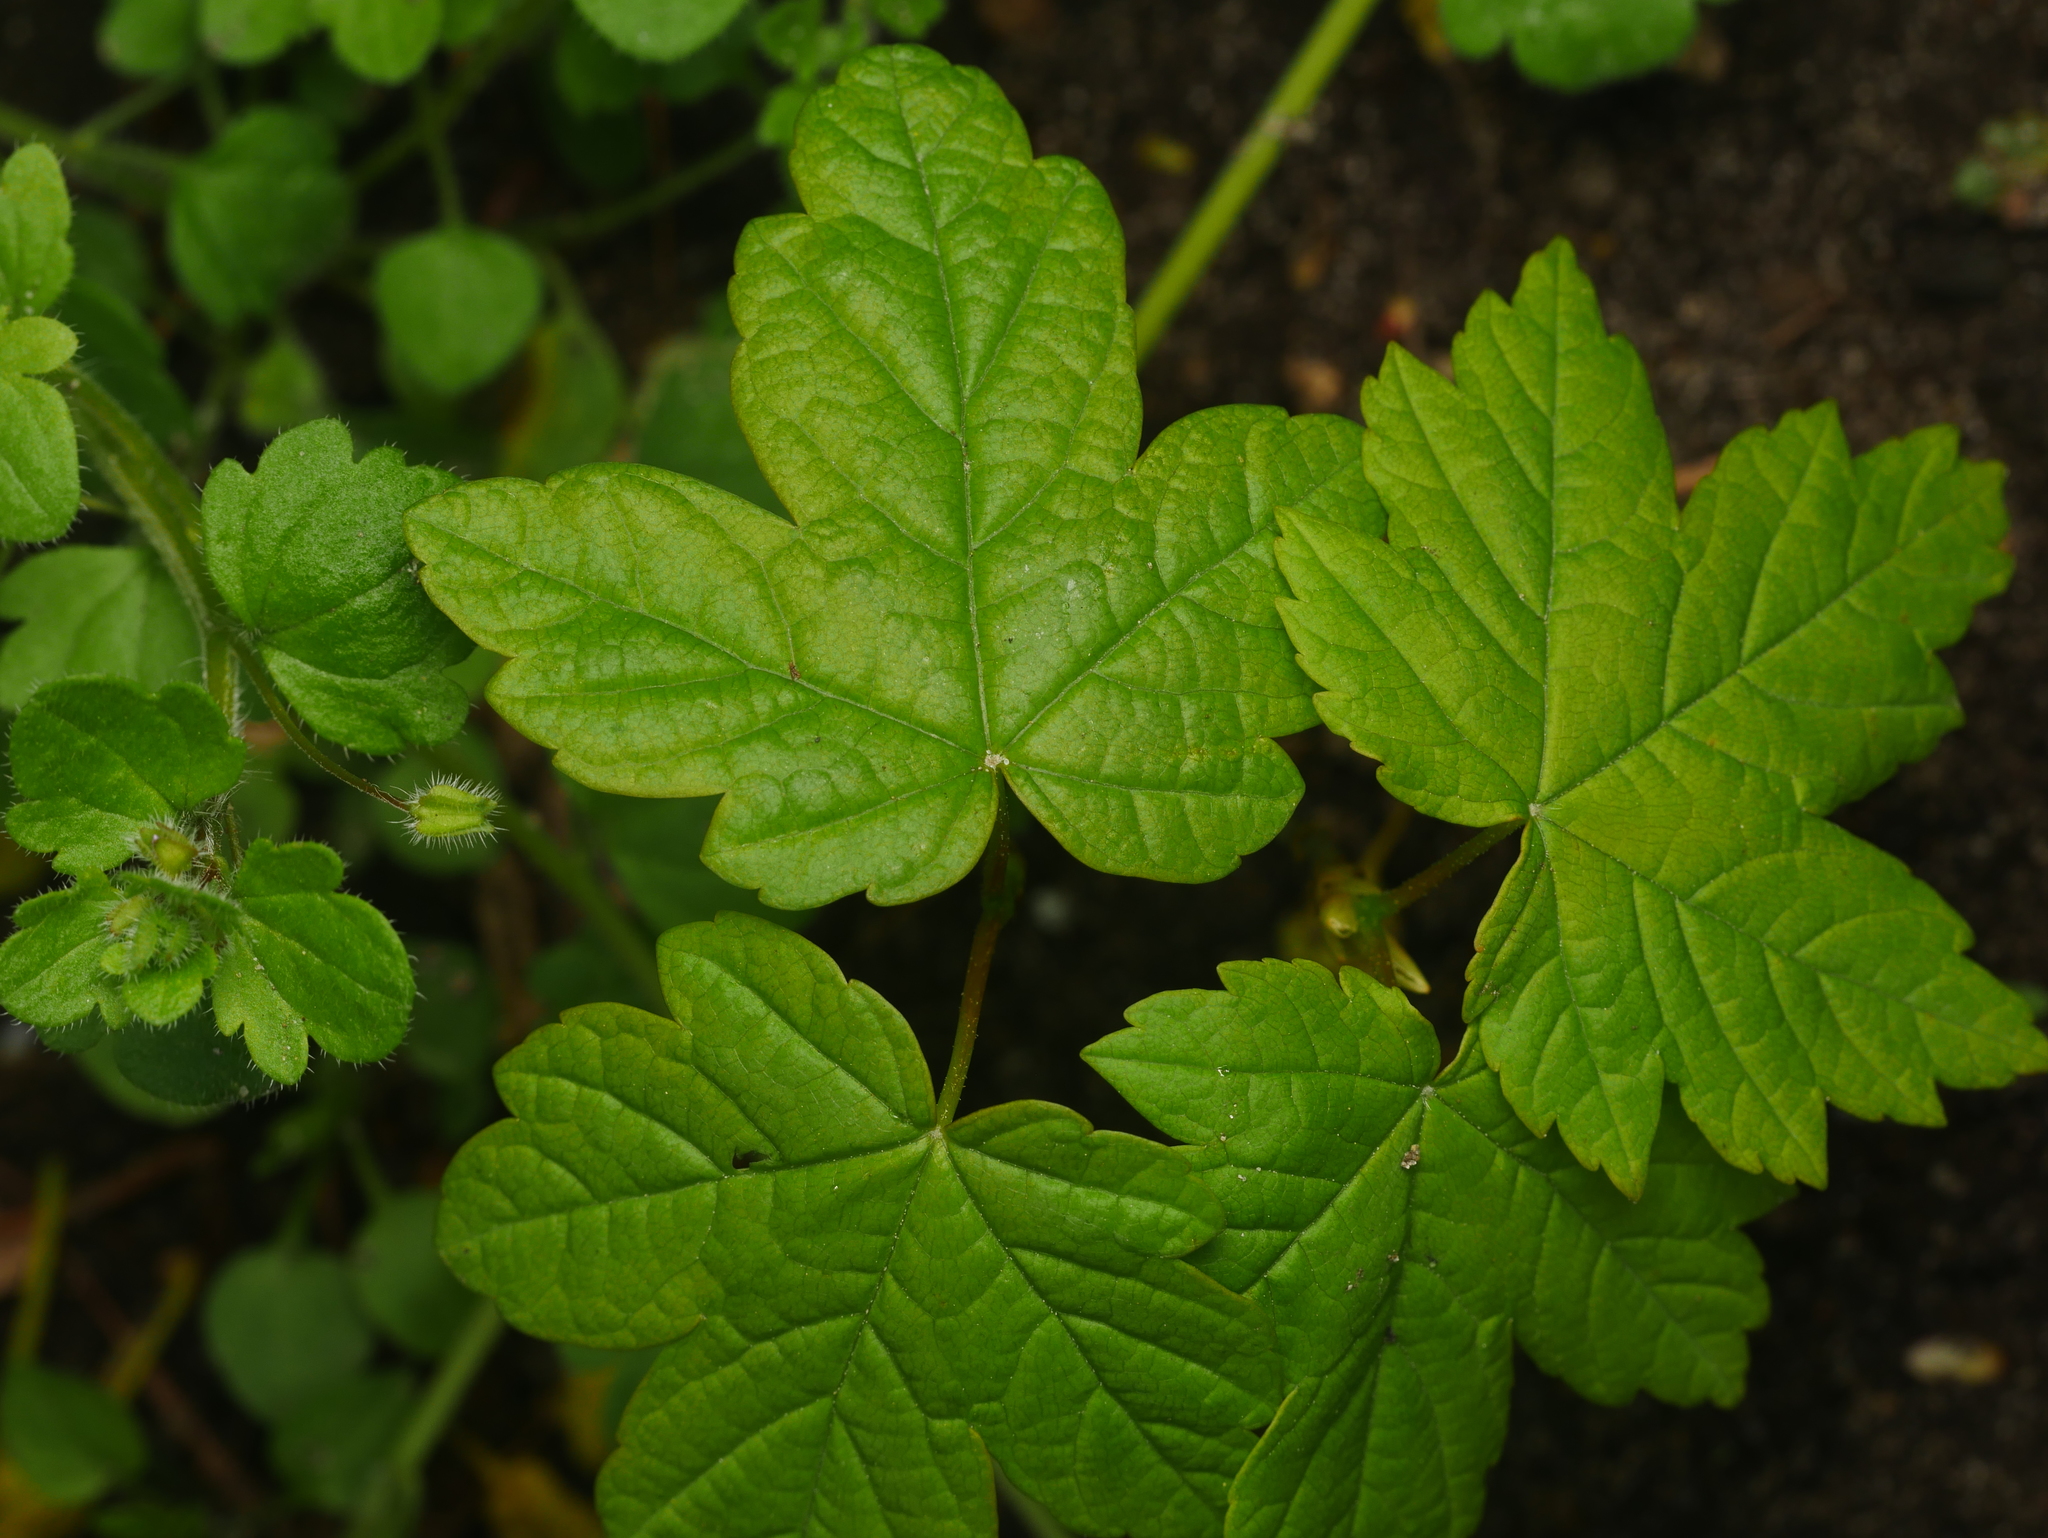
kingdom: Plantae
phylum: Tracheophyta
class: Magnoliopsida
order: Sapindales
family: Sapindaceae
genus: Acer
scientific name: Acer pseudoplatanus
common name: Sycamore
